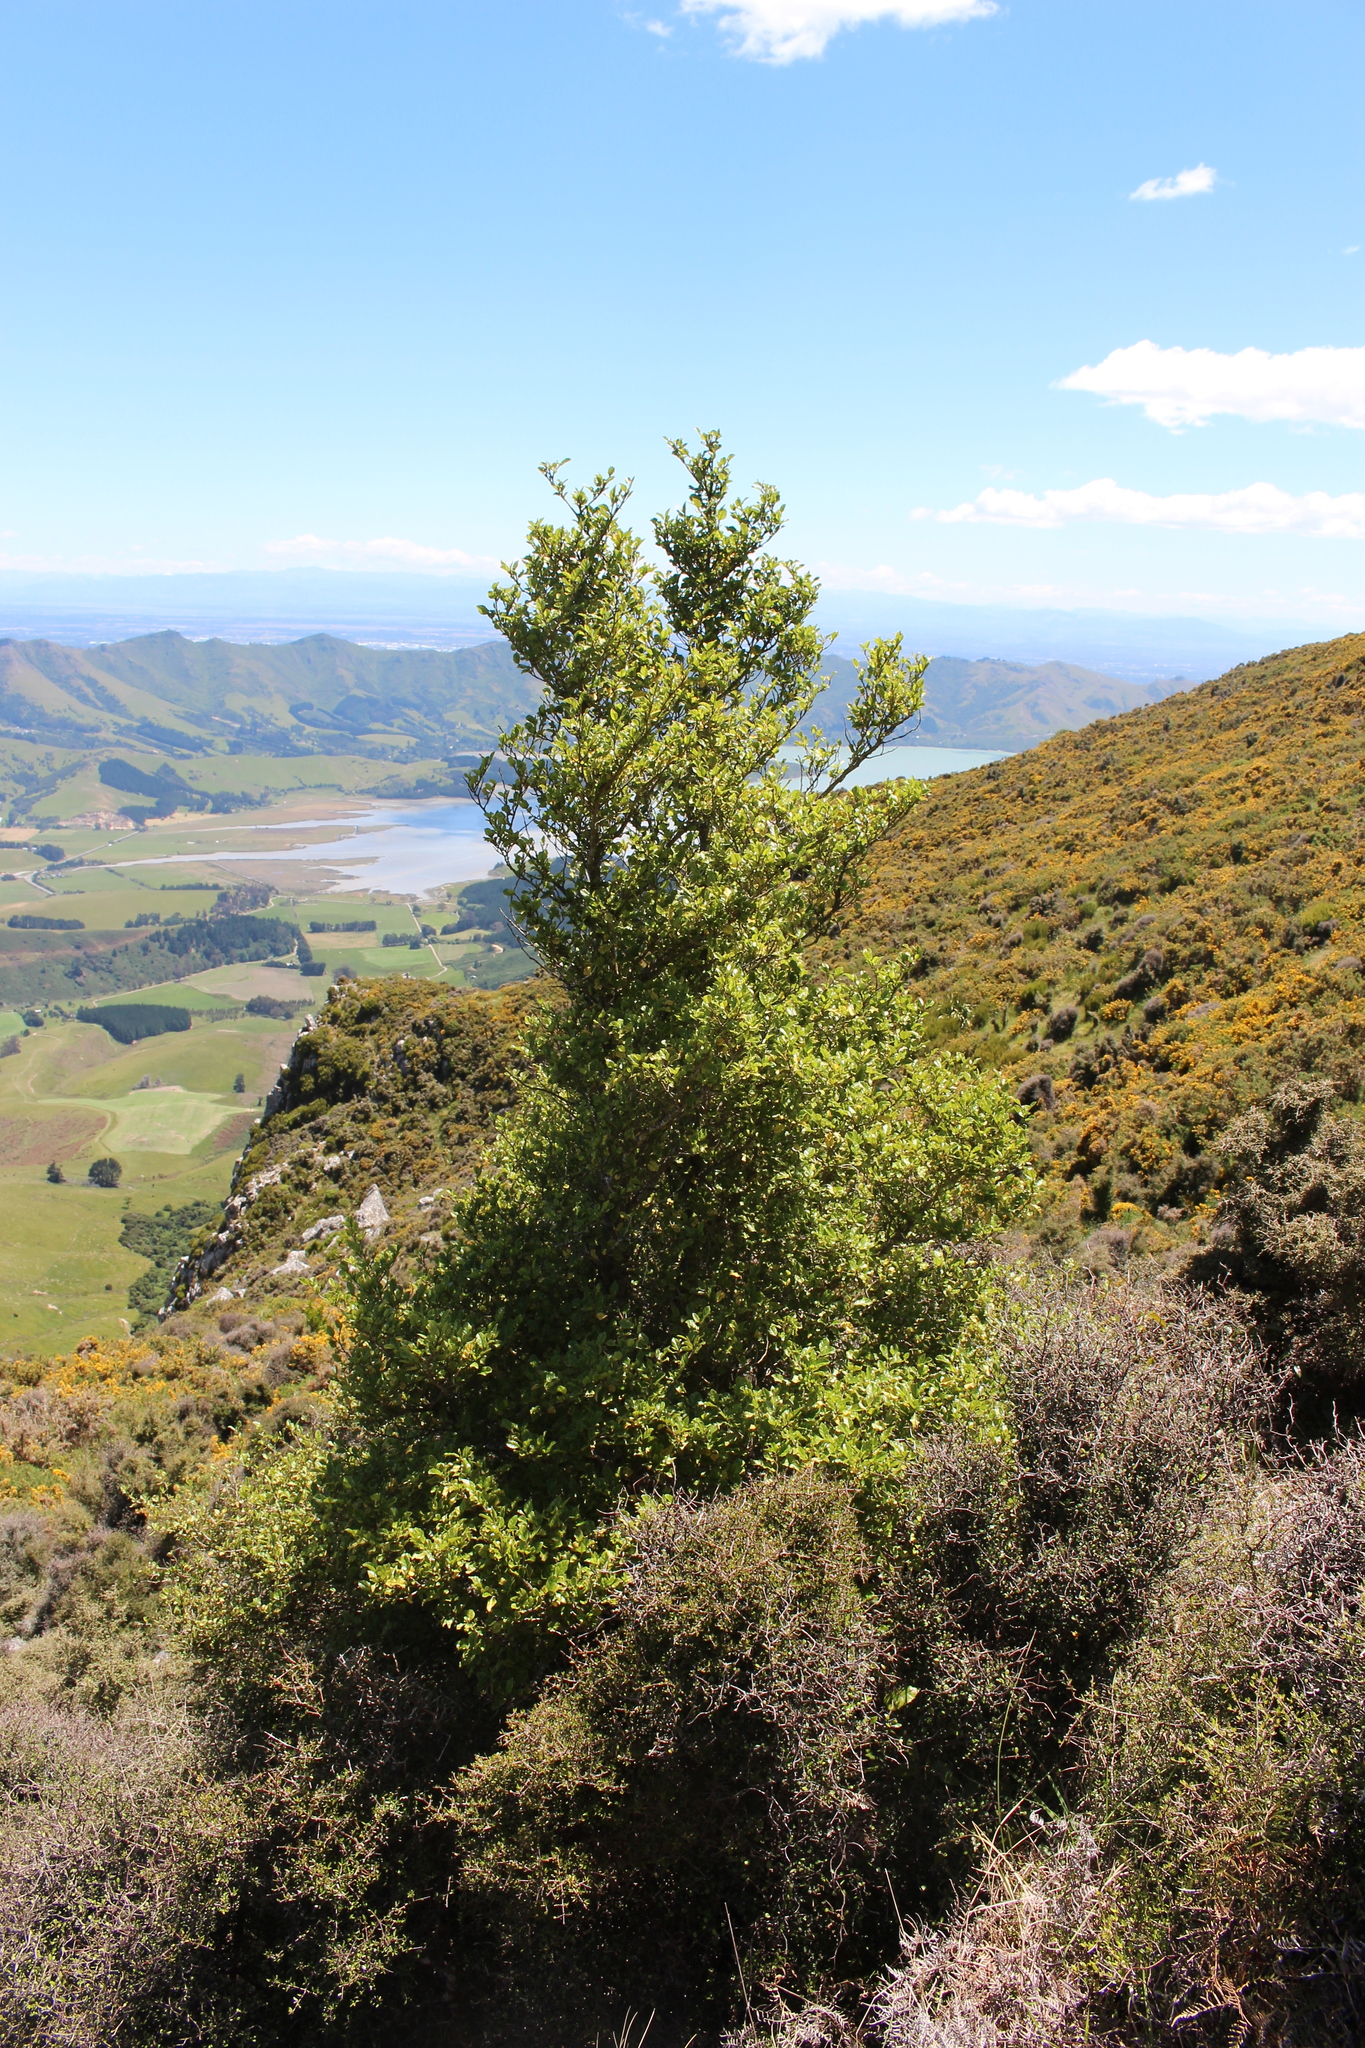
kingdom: Plantae
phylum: Tracheophyta
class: Magnoliopsida
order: Asterales
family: Rousseaceae
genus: Carpodetus
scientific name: Carpodetus serratus
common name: White mapau
